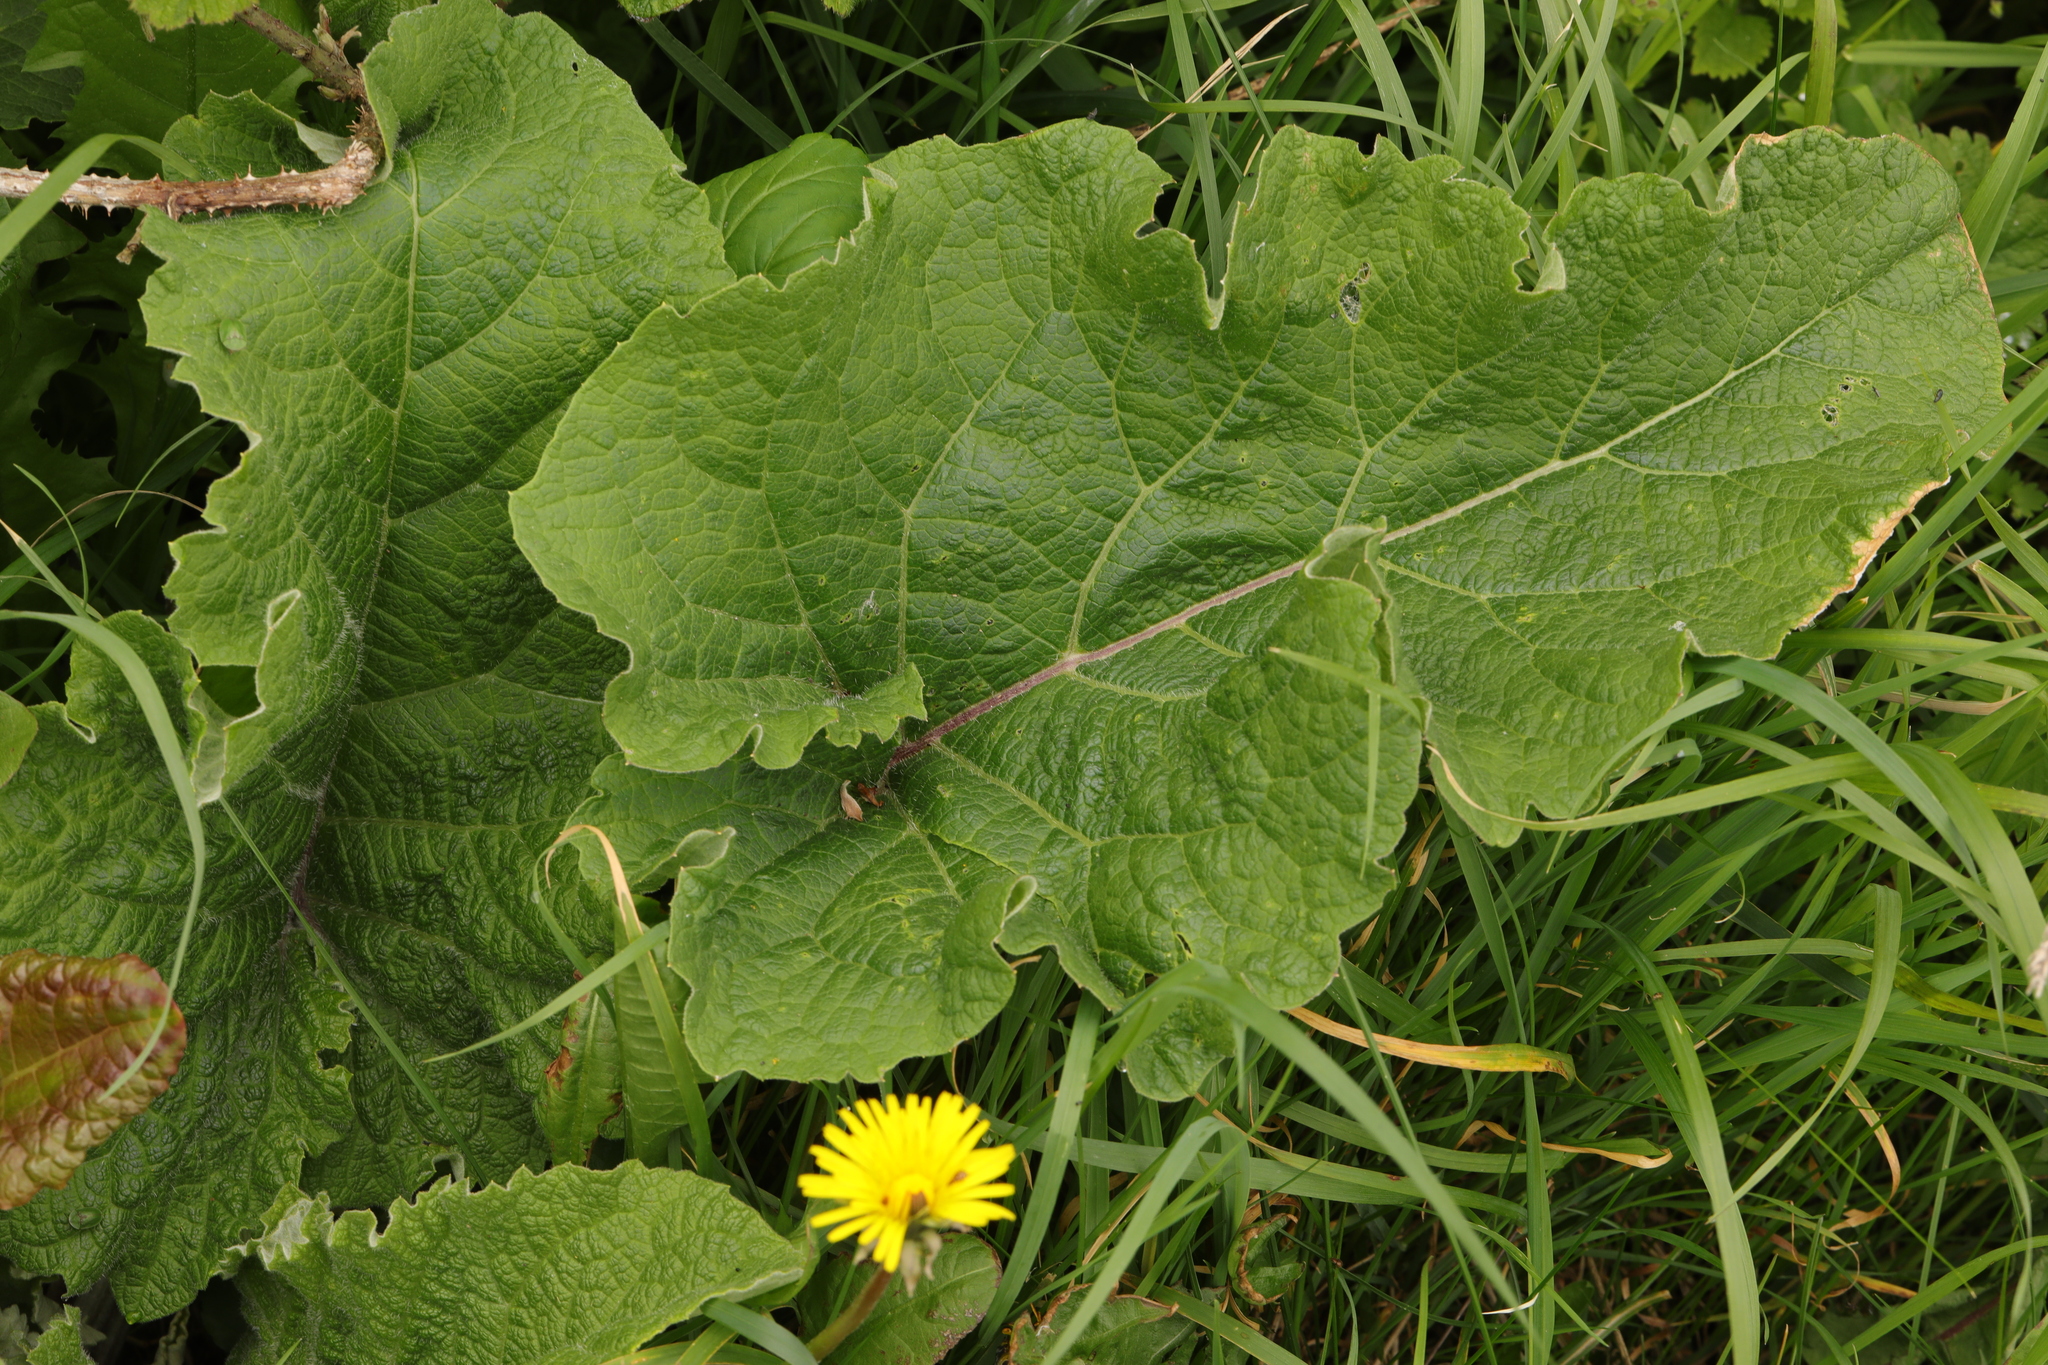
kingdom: Plantae
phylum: Tracheophyta
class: Magnoliopsida
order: Asterales
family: Asteraceae
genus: Arctium
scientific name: Arctium minus
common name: Lesser burdock
